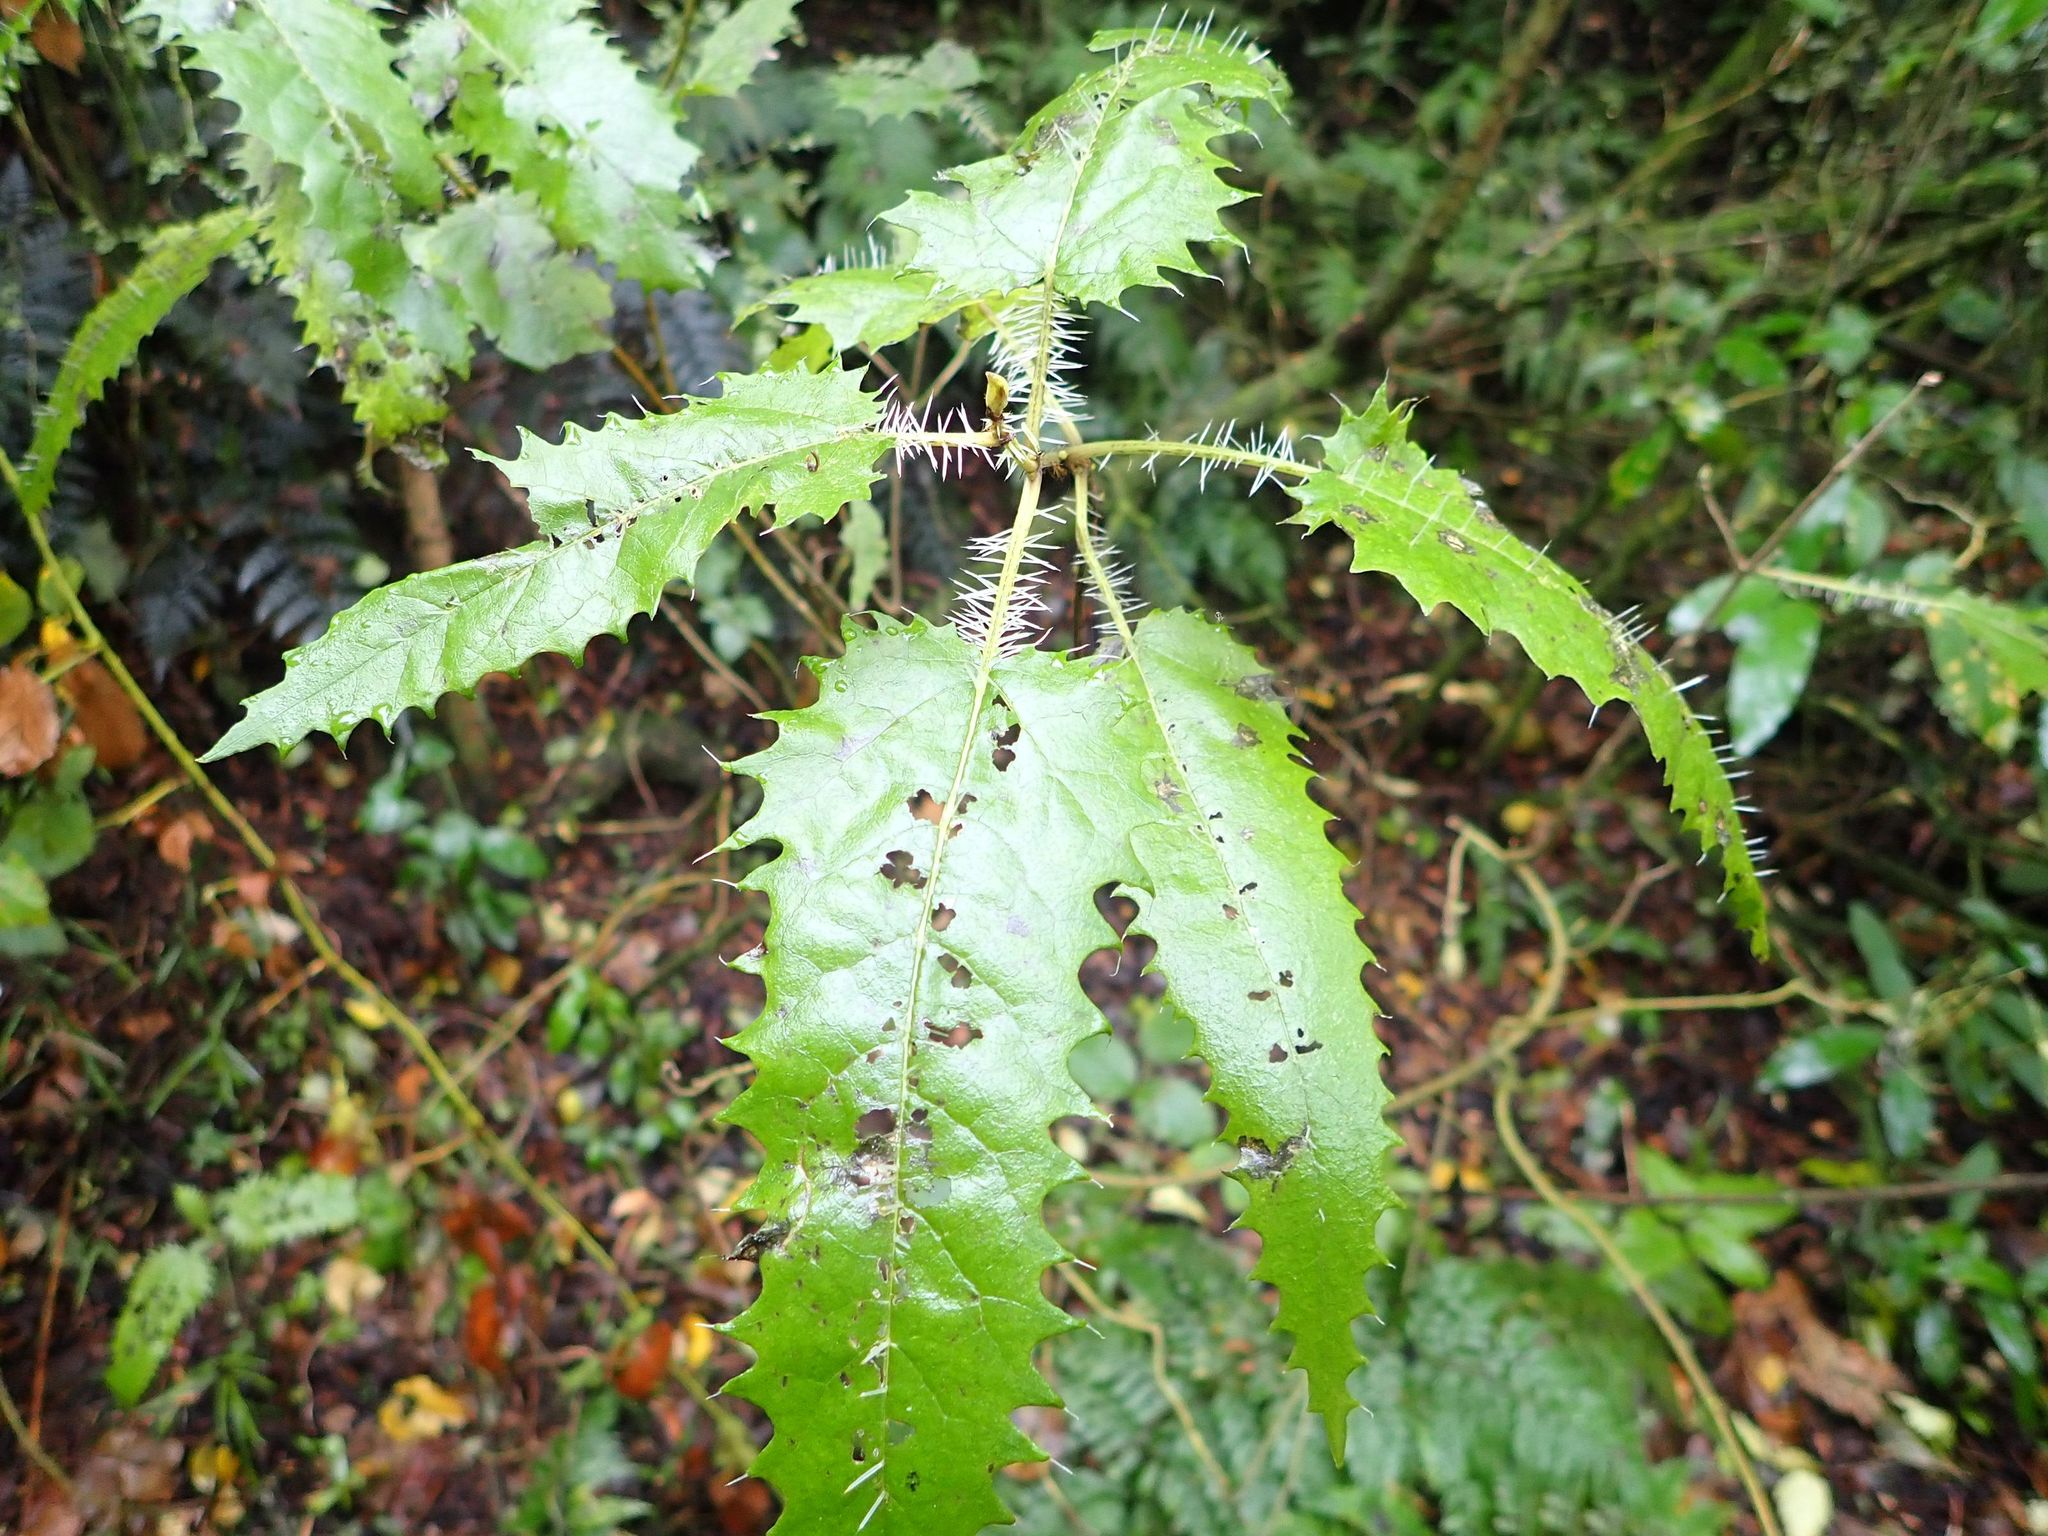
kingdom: Plantae
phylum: Tracheophyta
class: Magnoliopsida
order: Rosales
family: Urticaceae
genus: Urtica
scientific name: Urtica ferox
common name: Tree nettle
